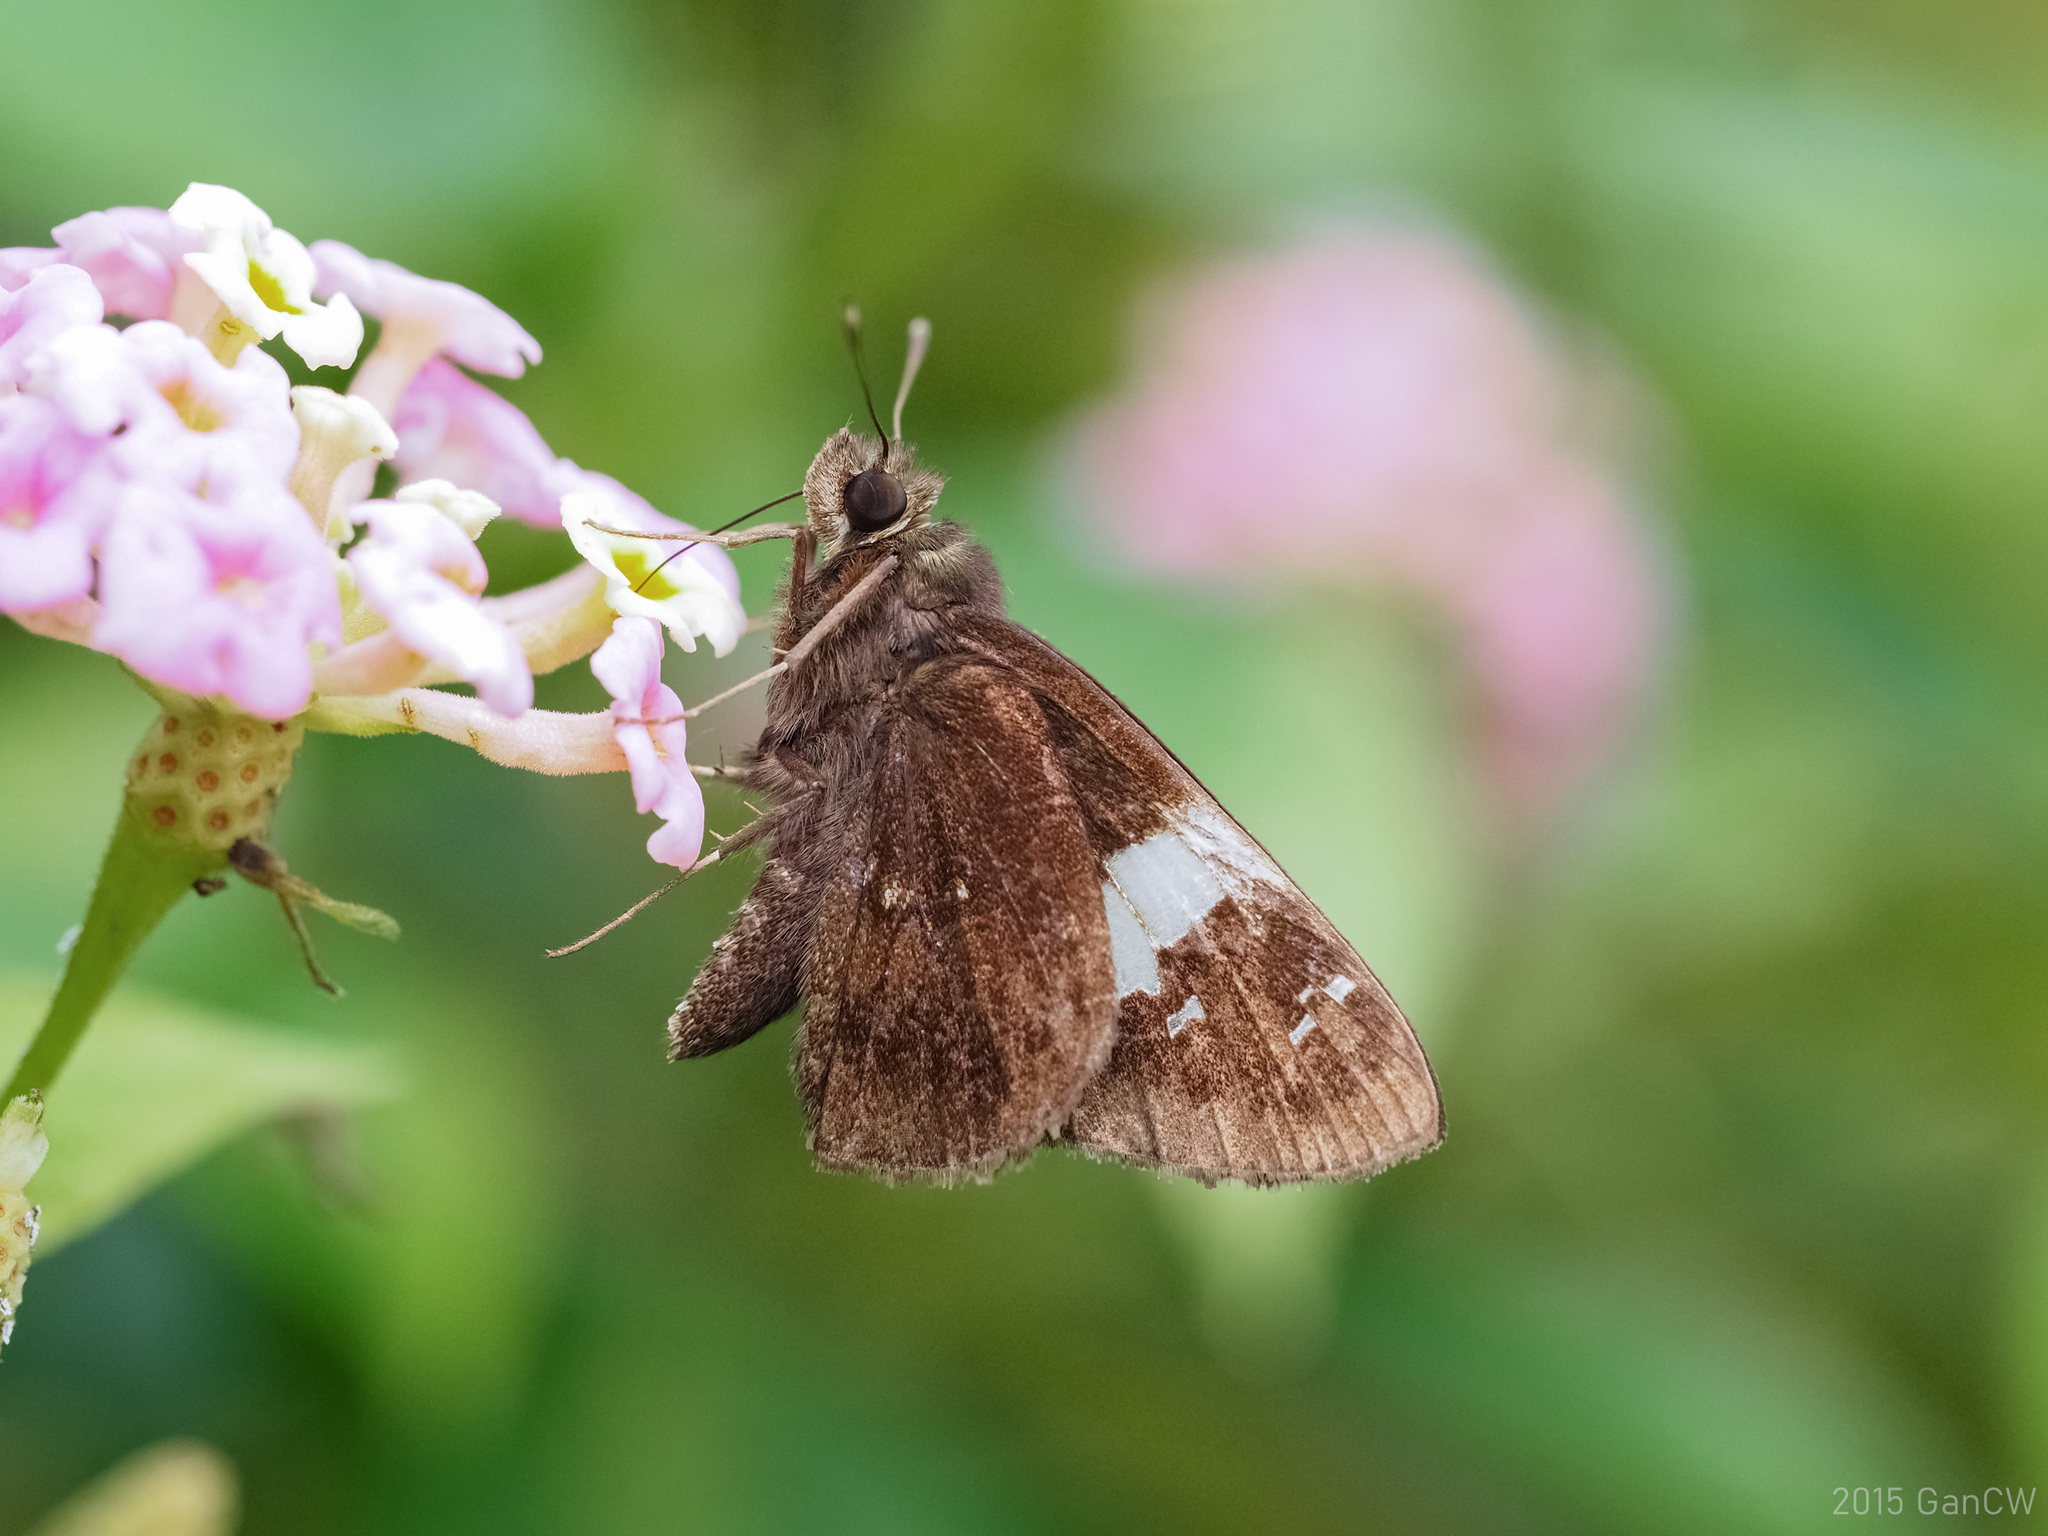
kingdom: Animalia
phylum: Arthropoda
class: Insecta
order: Lepidoptera
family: Hesperiidae
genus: Hyarotis
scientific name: Hyarotis stubbsi
